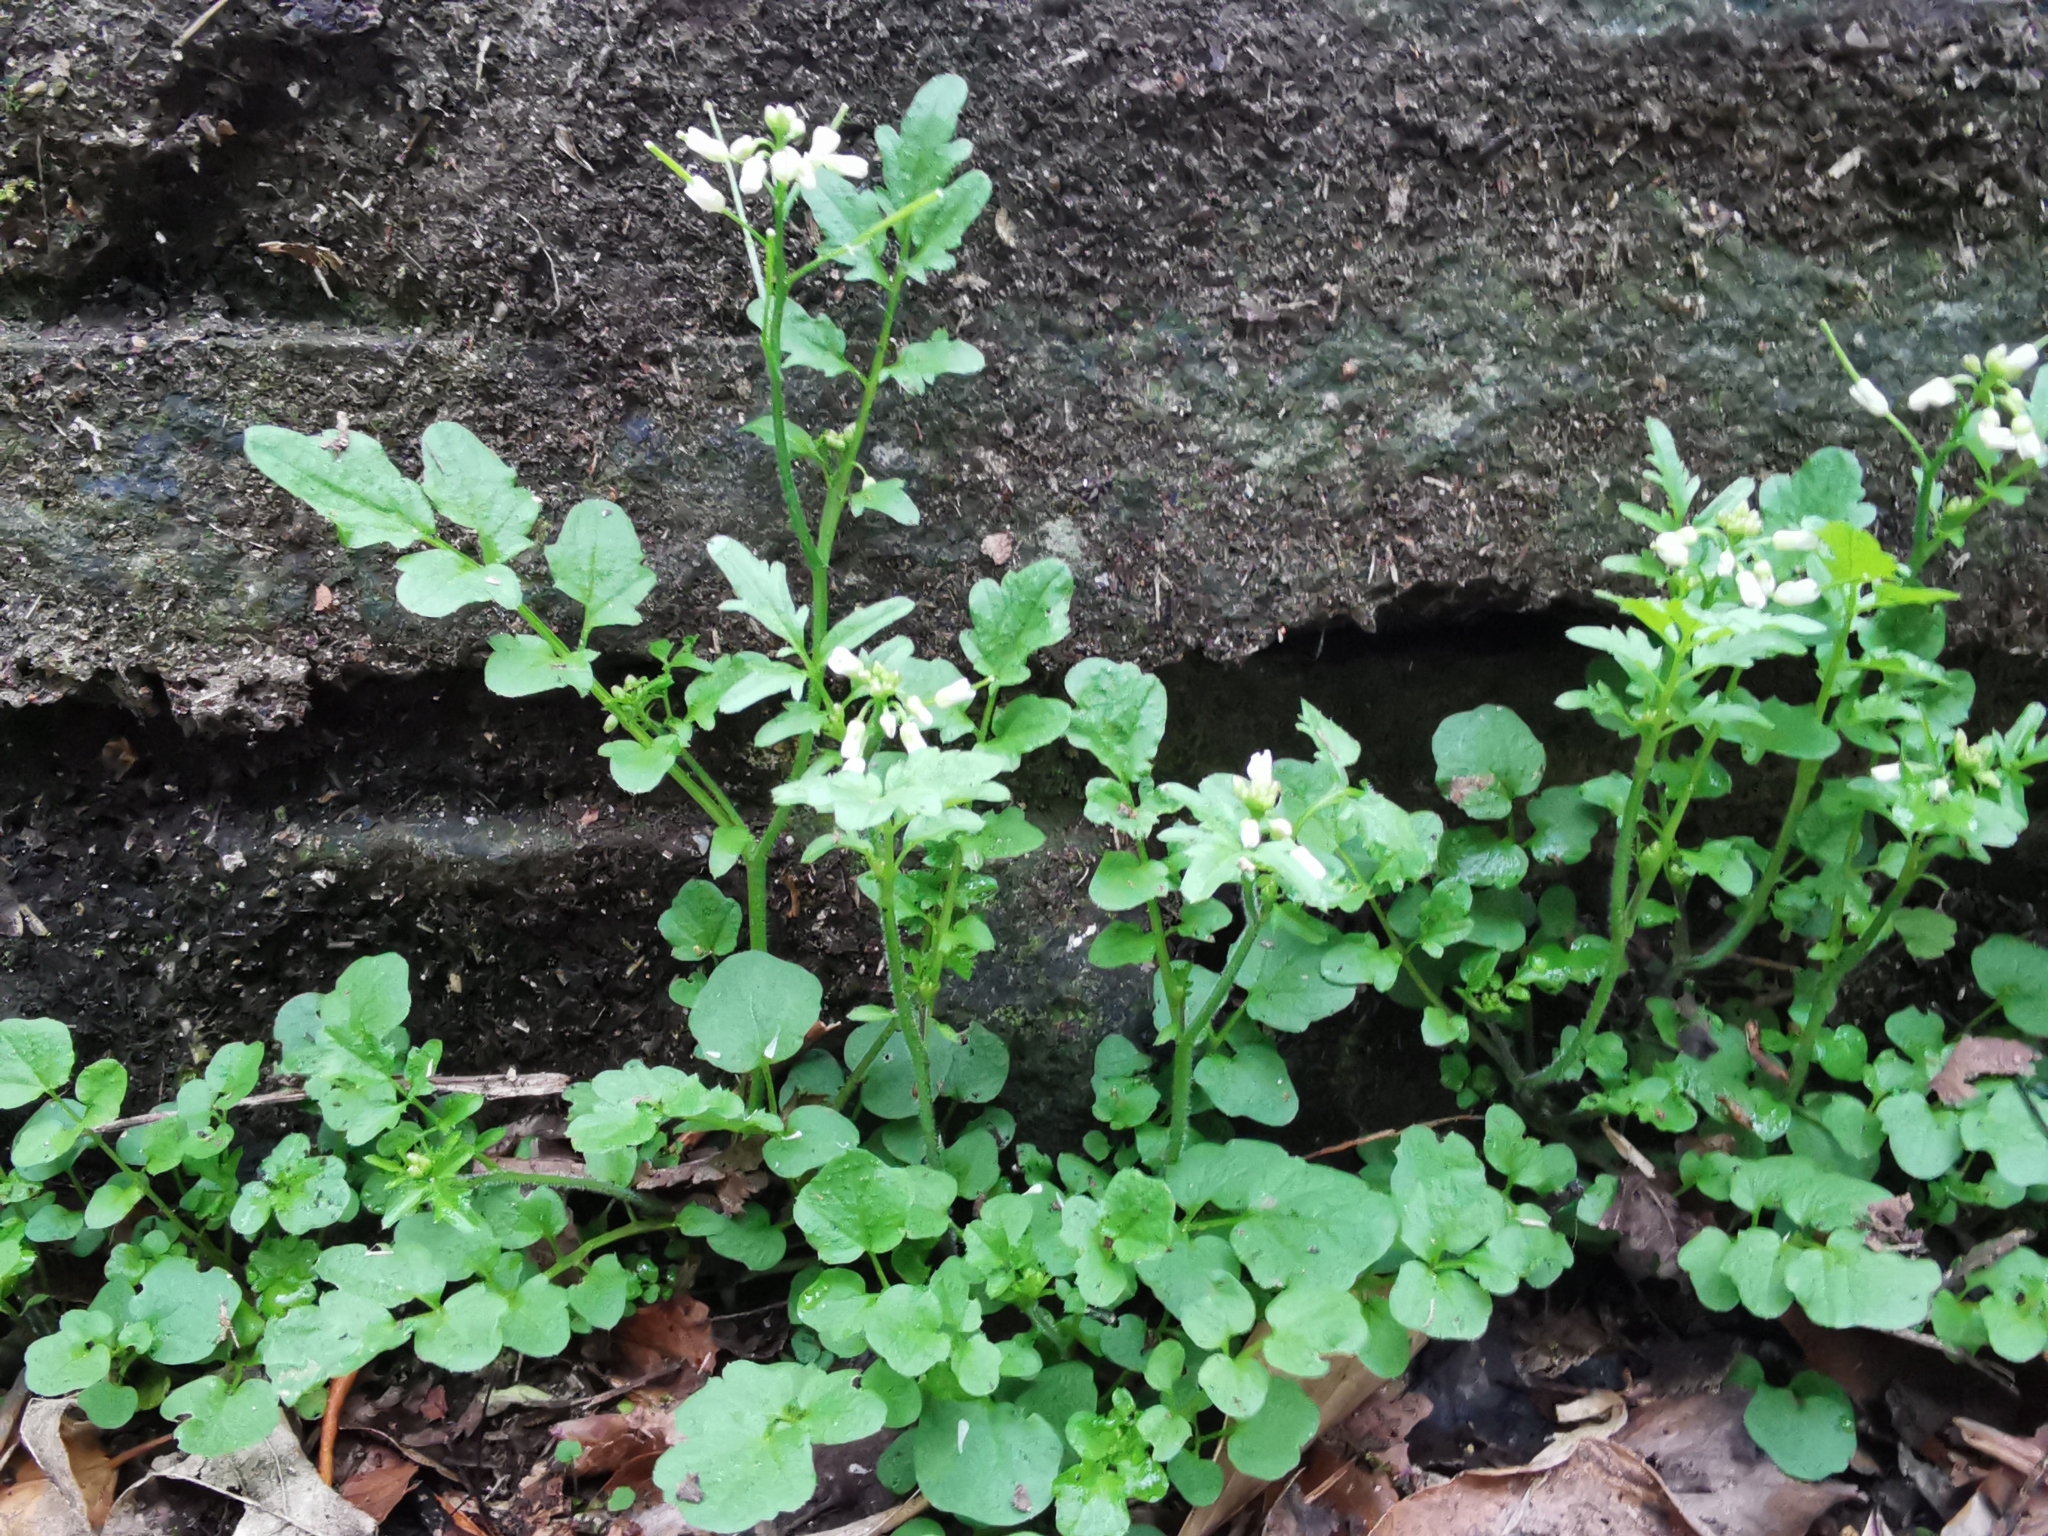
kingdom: Plantae
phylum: Tracheophyta
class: Magnoliopsida
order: Brassicales
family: Brassicaceae
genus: Cardamine
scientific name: Cardamine flexuosa
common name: Woodland bittercress
